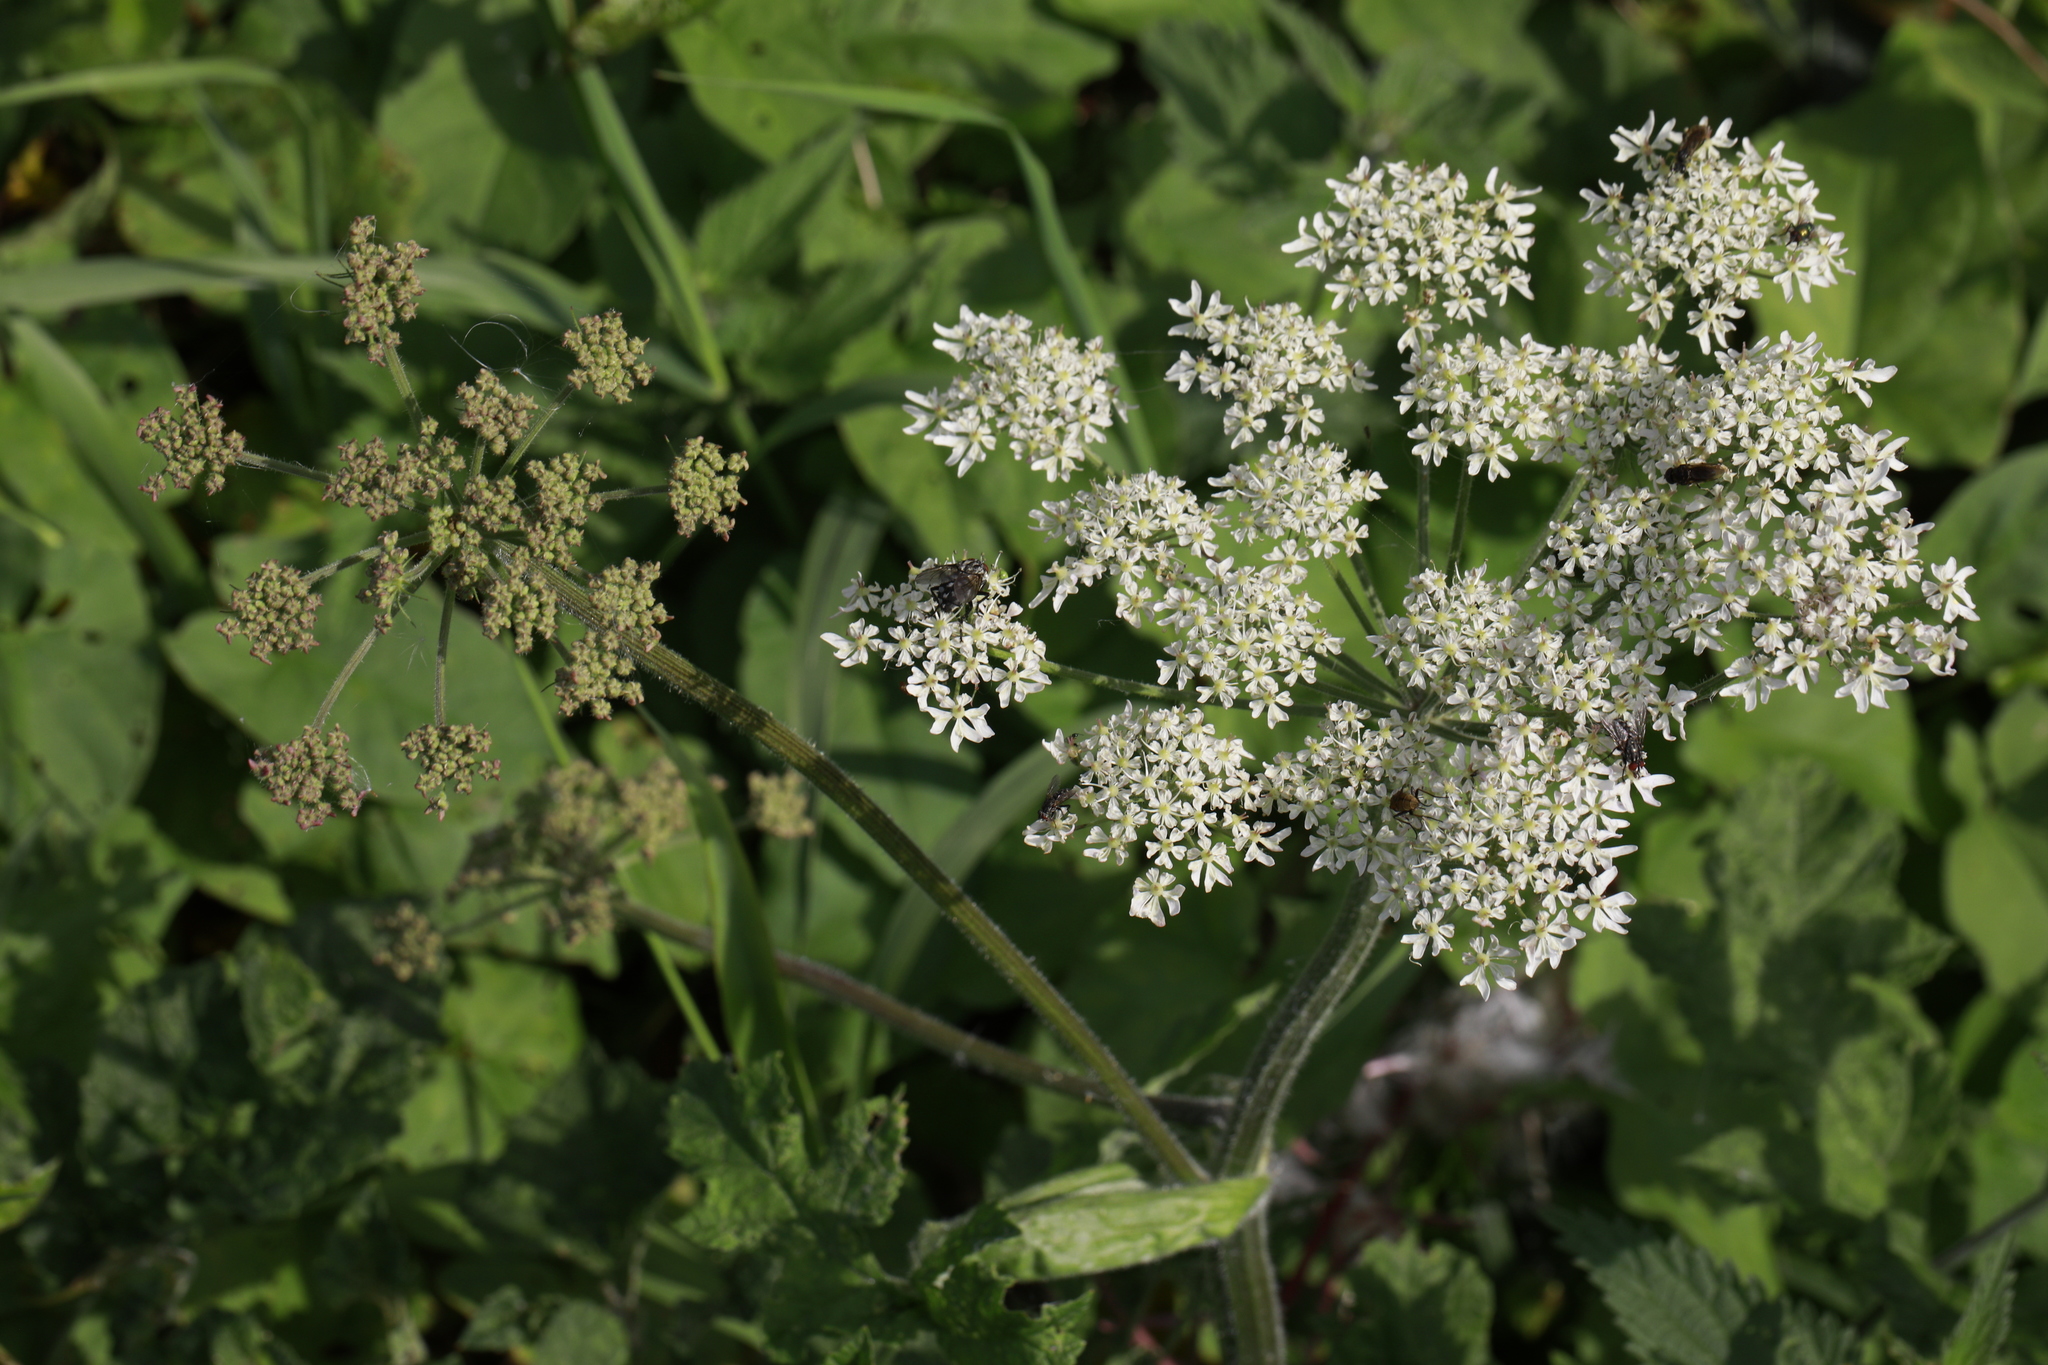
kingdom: Plantae
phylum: Tracheophyta
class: Magnoliopsida
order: Apiales
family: Apiaceae
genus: Heracleum
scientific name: Heracleum sphondylium
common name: Hogweed
